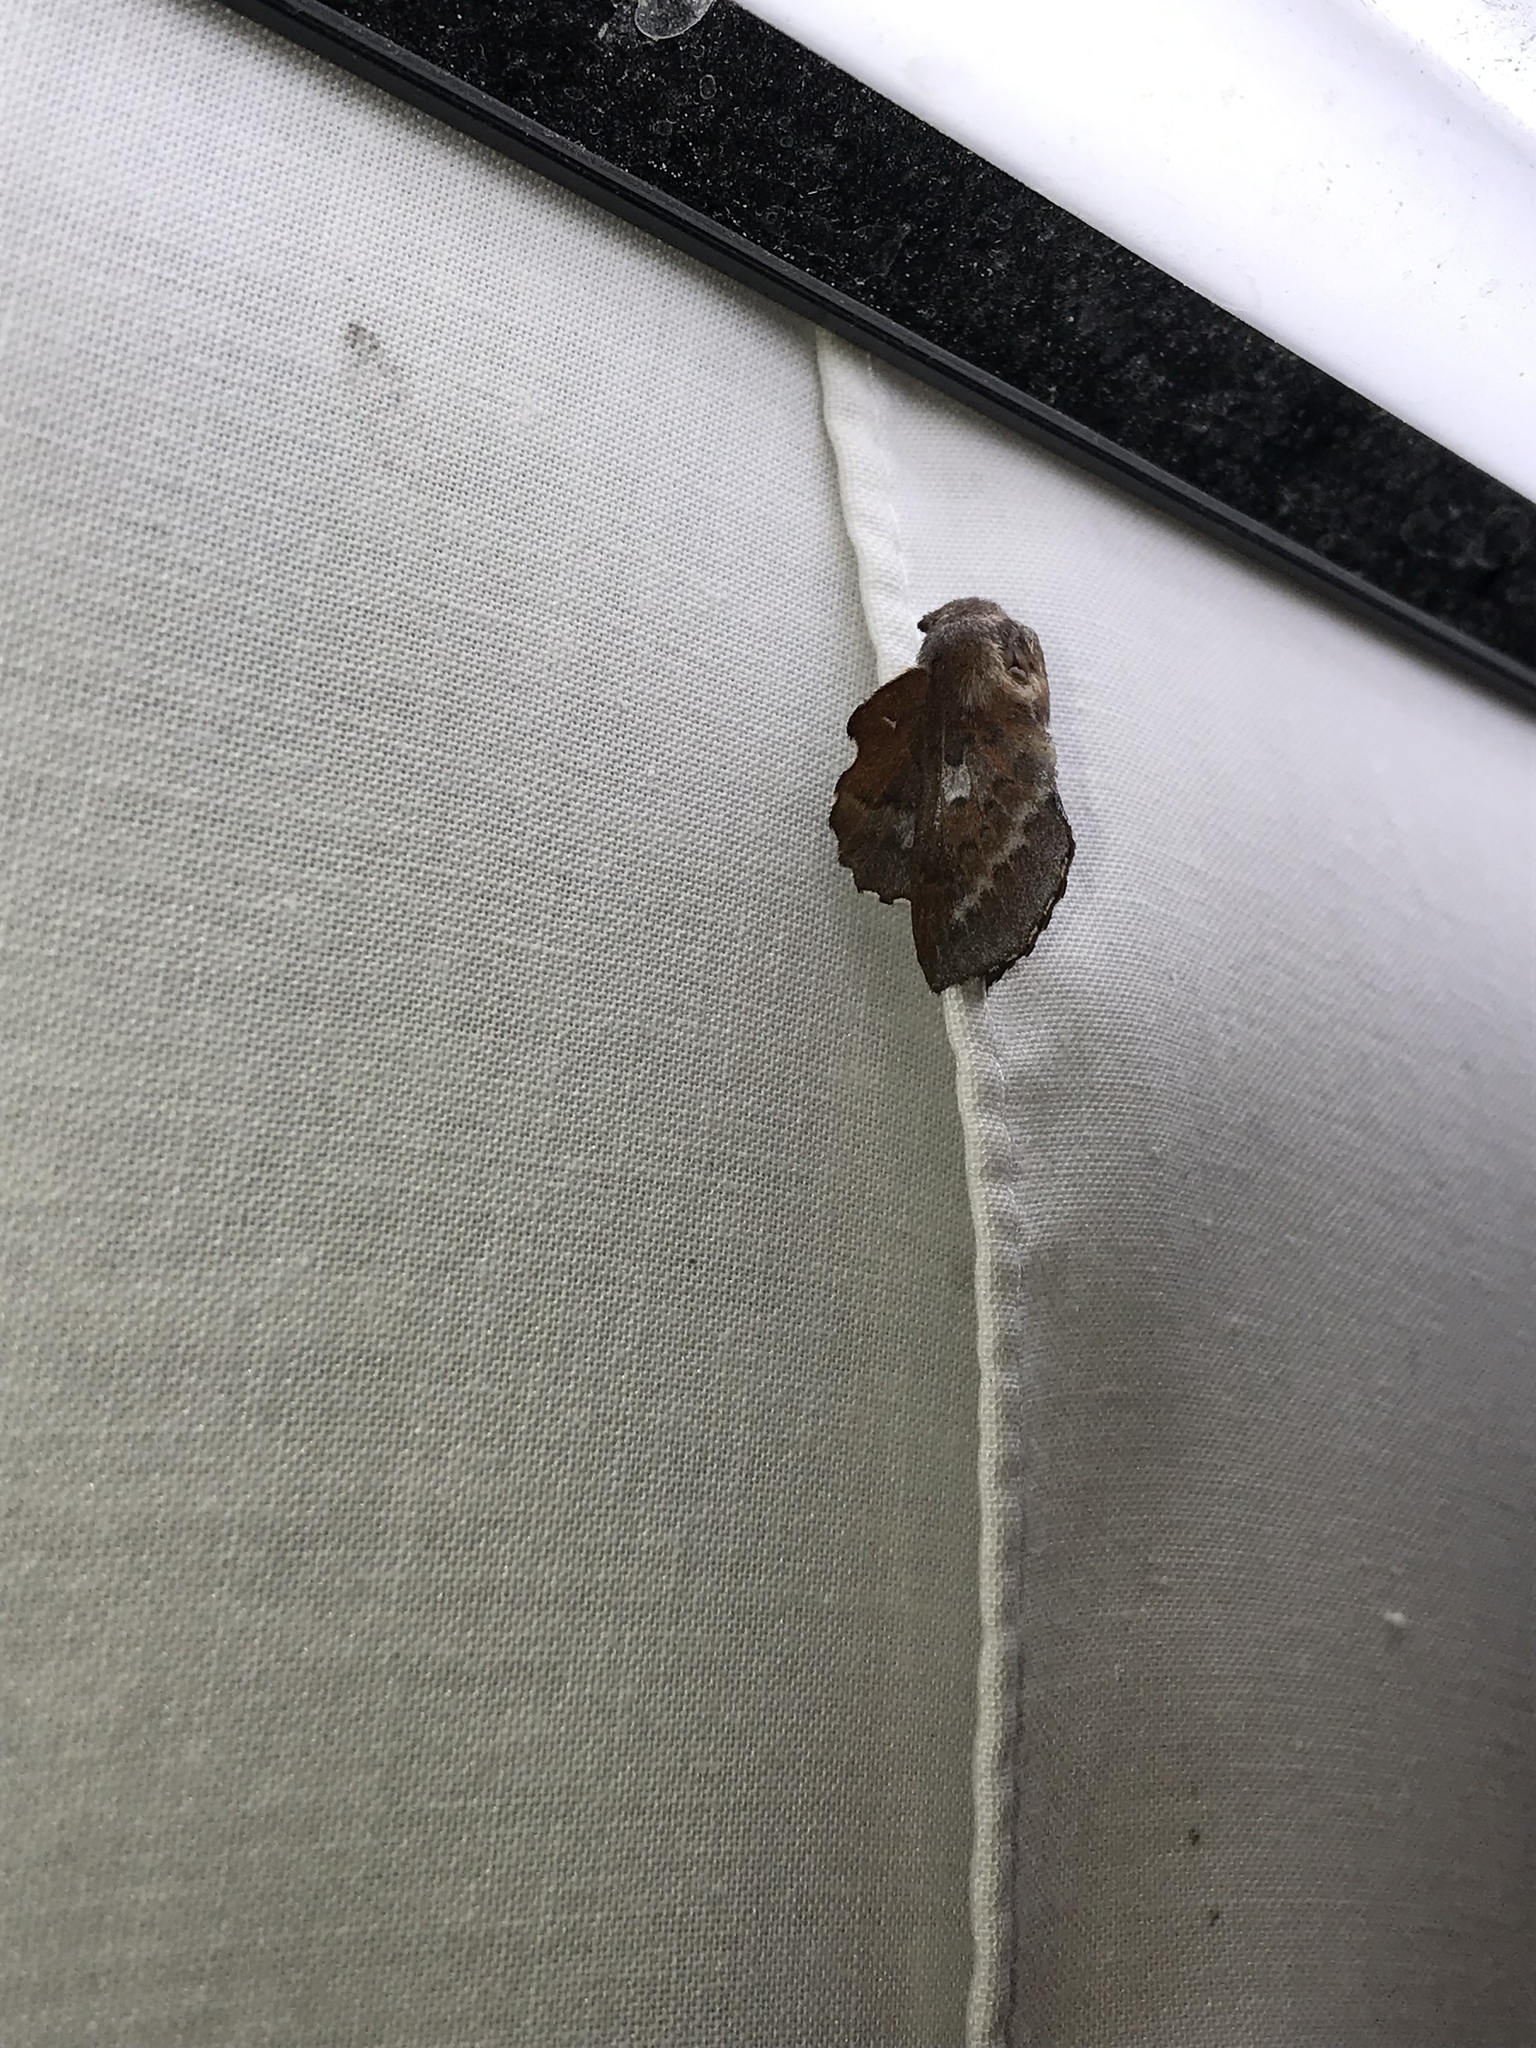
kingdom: Animalia
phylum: Arthropoda
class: Insecta
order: Lepidoptera
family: Lasiocampidae
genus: Phyllodesma
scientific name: Phyllodesma americana
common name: American lappet moth
